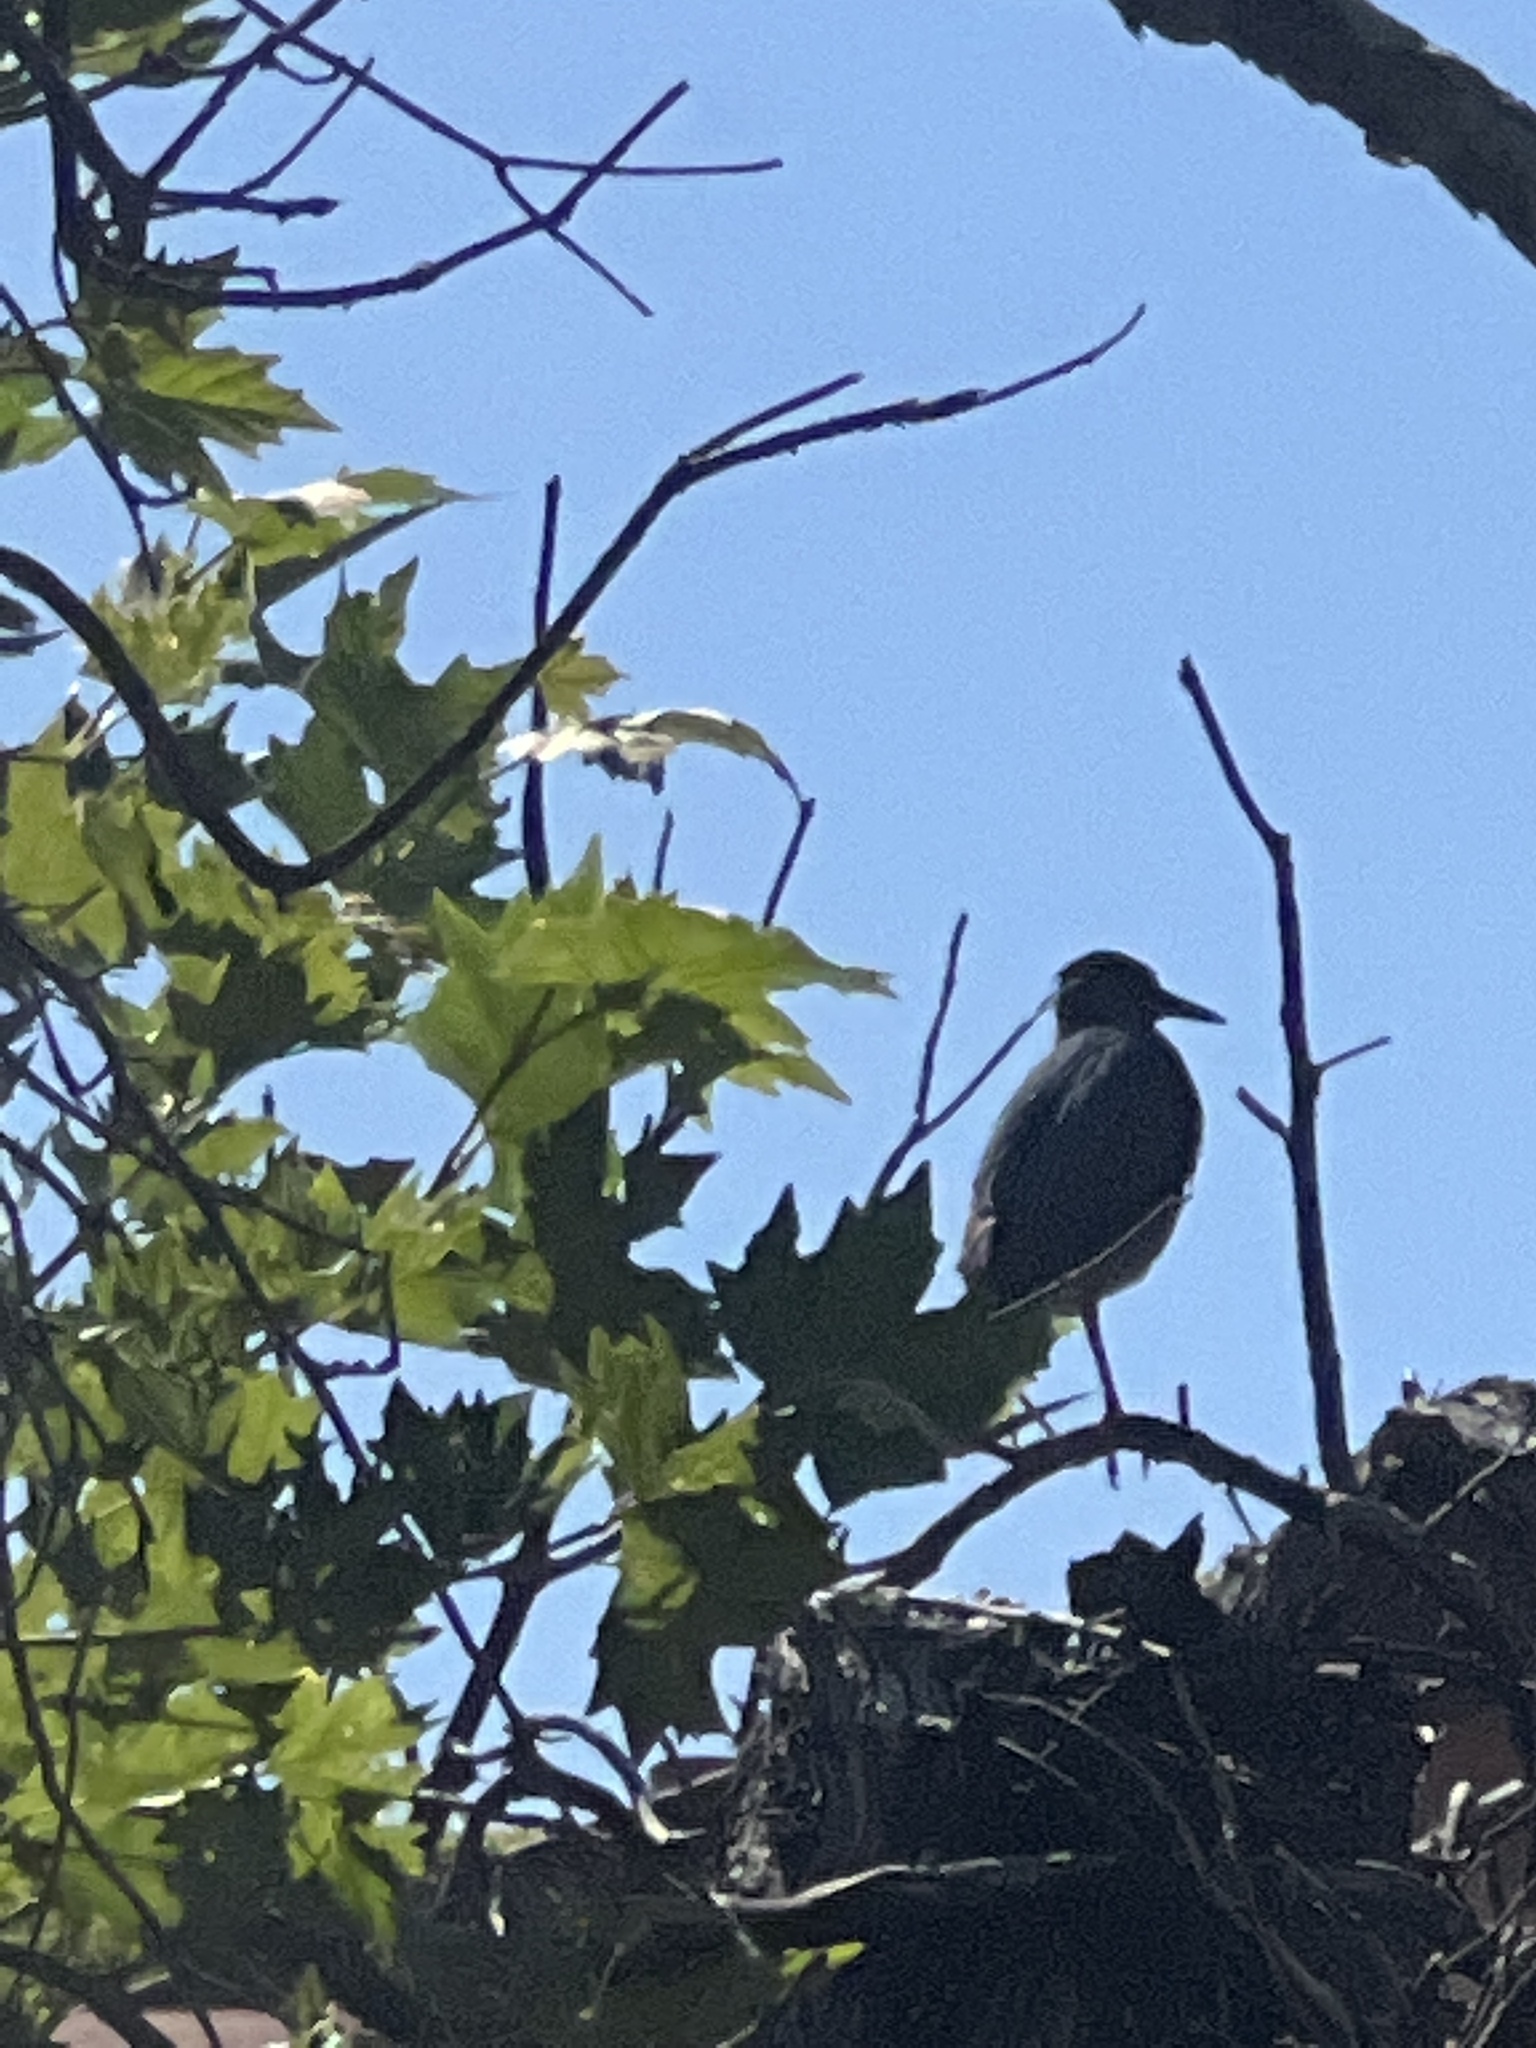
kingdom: Animalia
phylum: Chordata
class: Aves
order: Pelecaniformes
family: Ardeidae
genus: Butorides
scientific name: Butorides virescens
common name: Green heron
